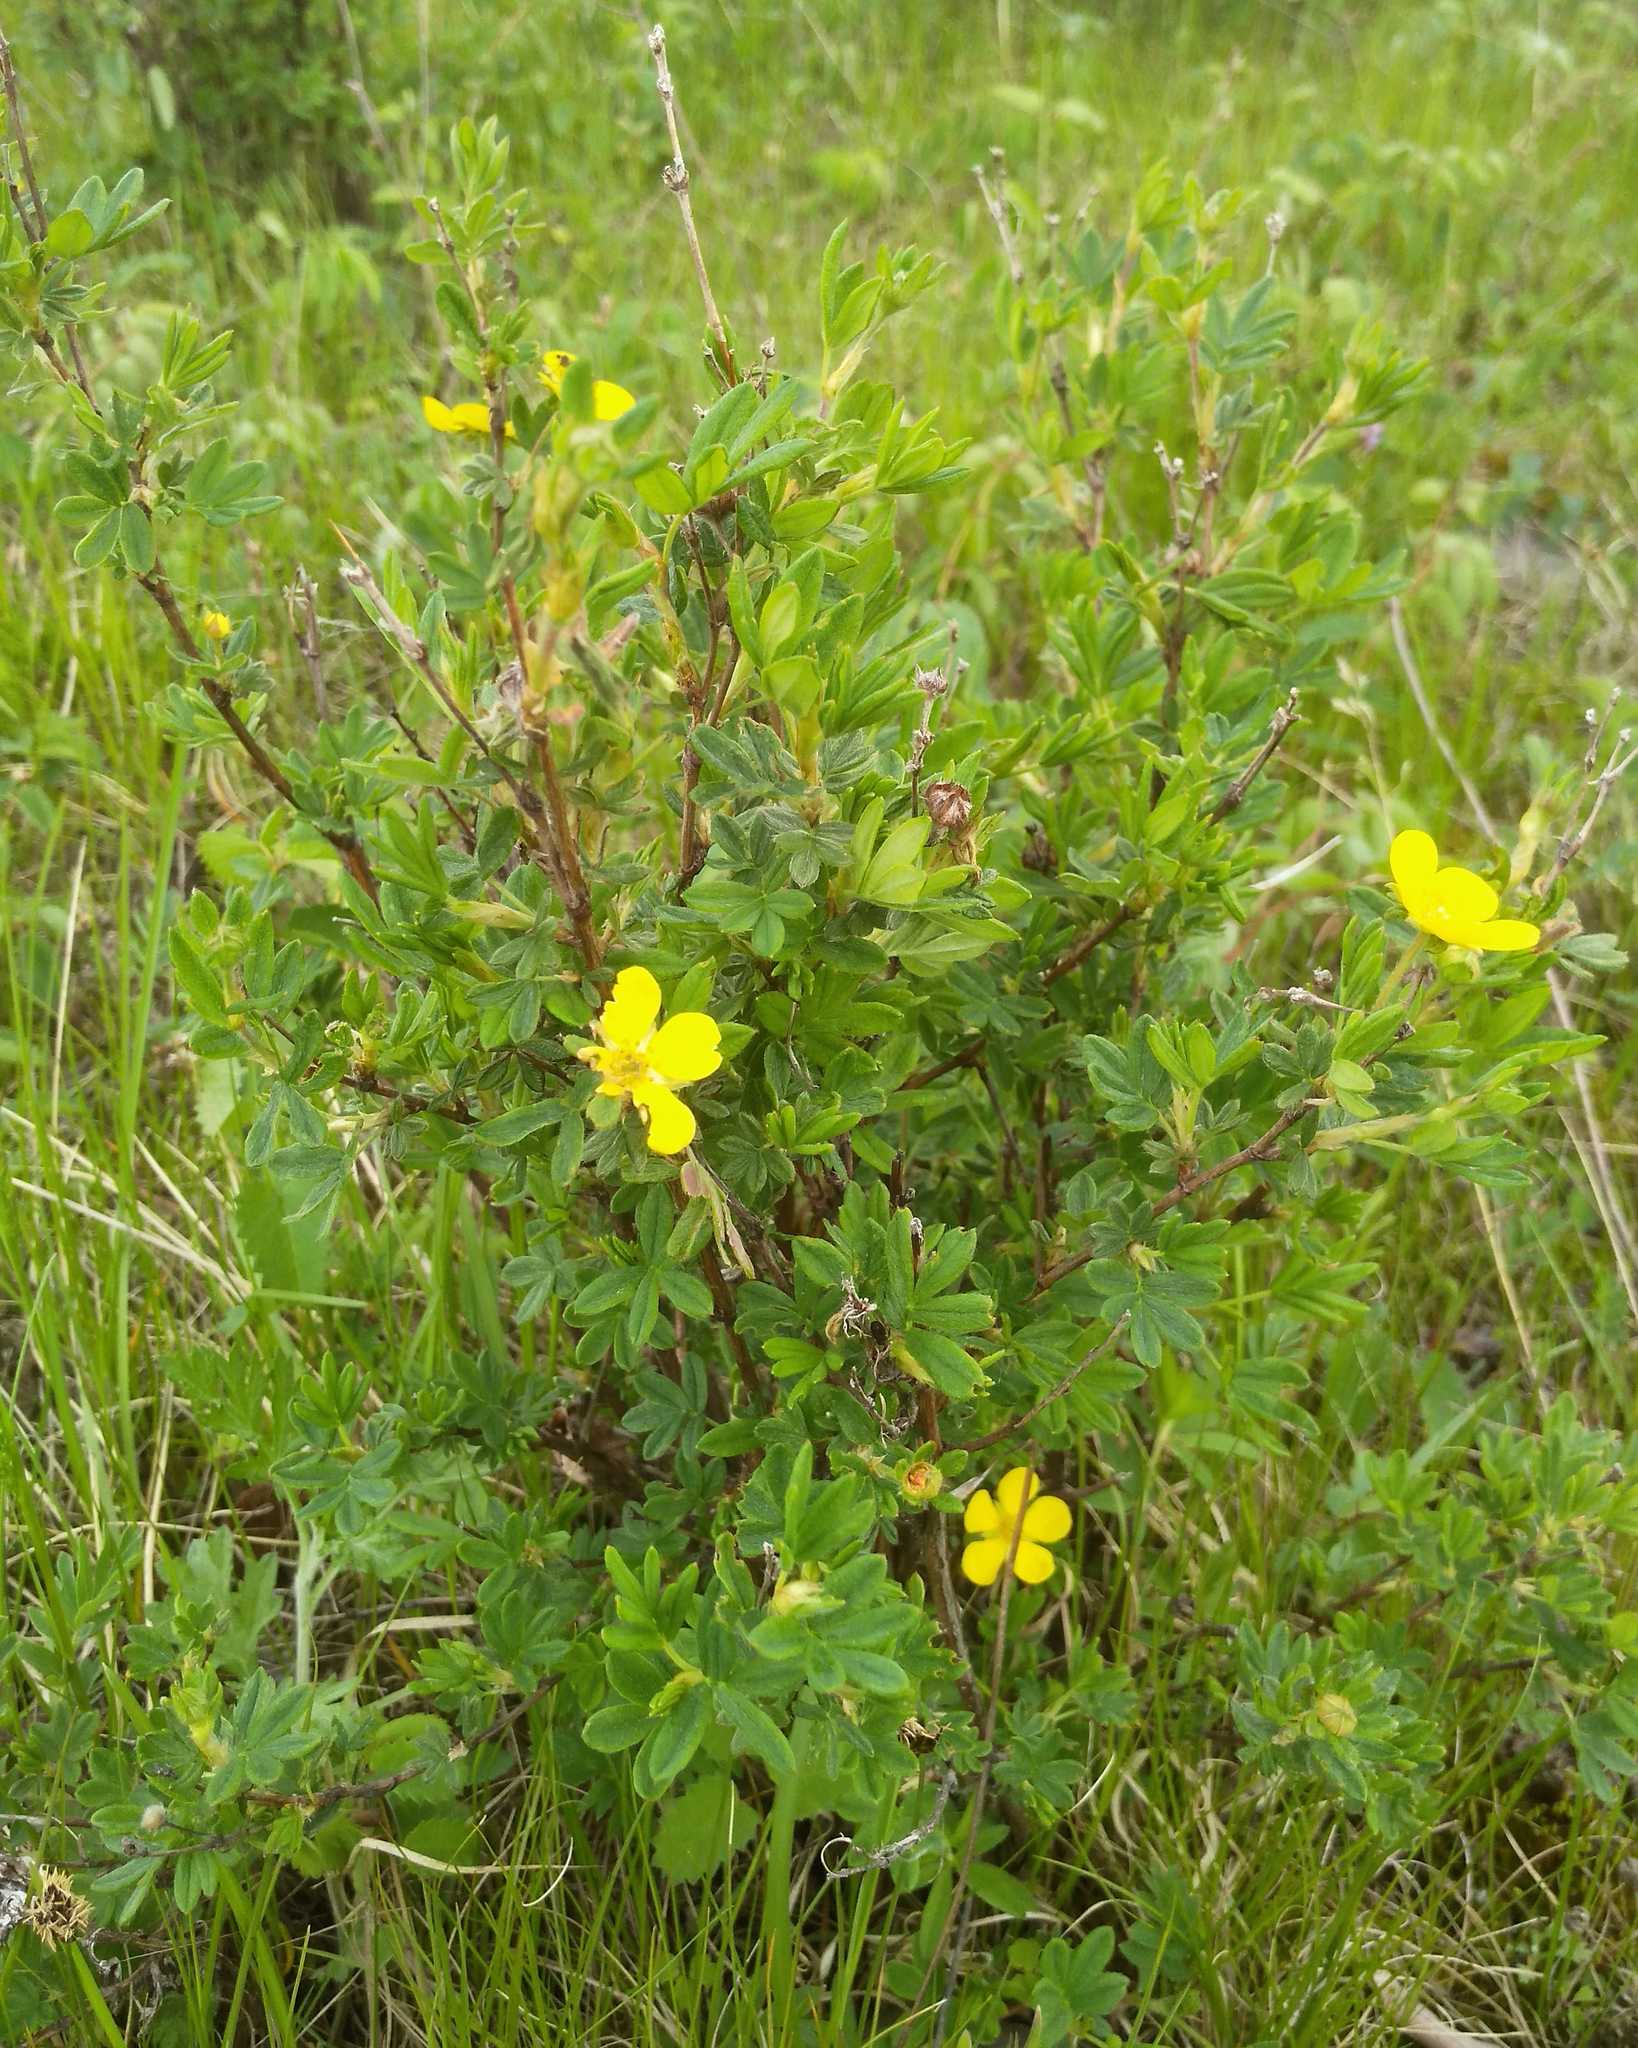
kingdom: Plantae
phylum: Tracheophyta
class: Magnoliopsida
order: Rosales
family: Rosaceae
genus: Dasiphora
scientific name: Dasiphora fruticosa
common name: Shrubby cinquefoil
